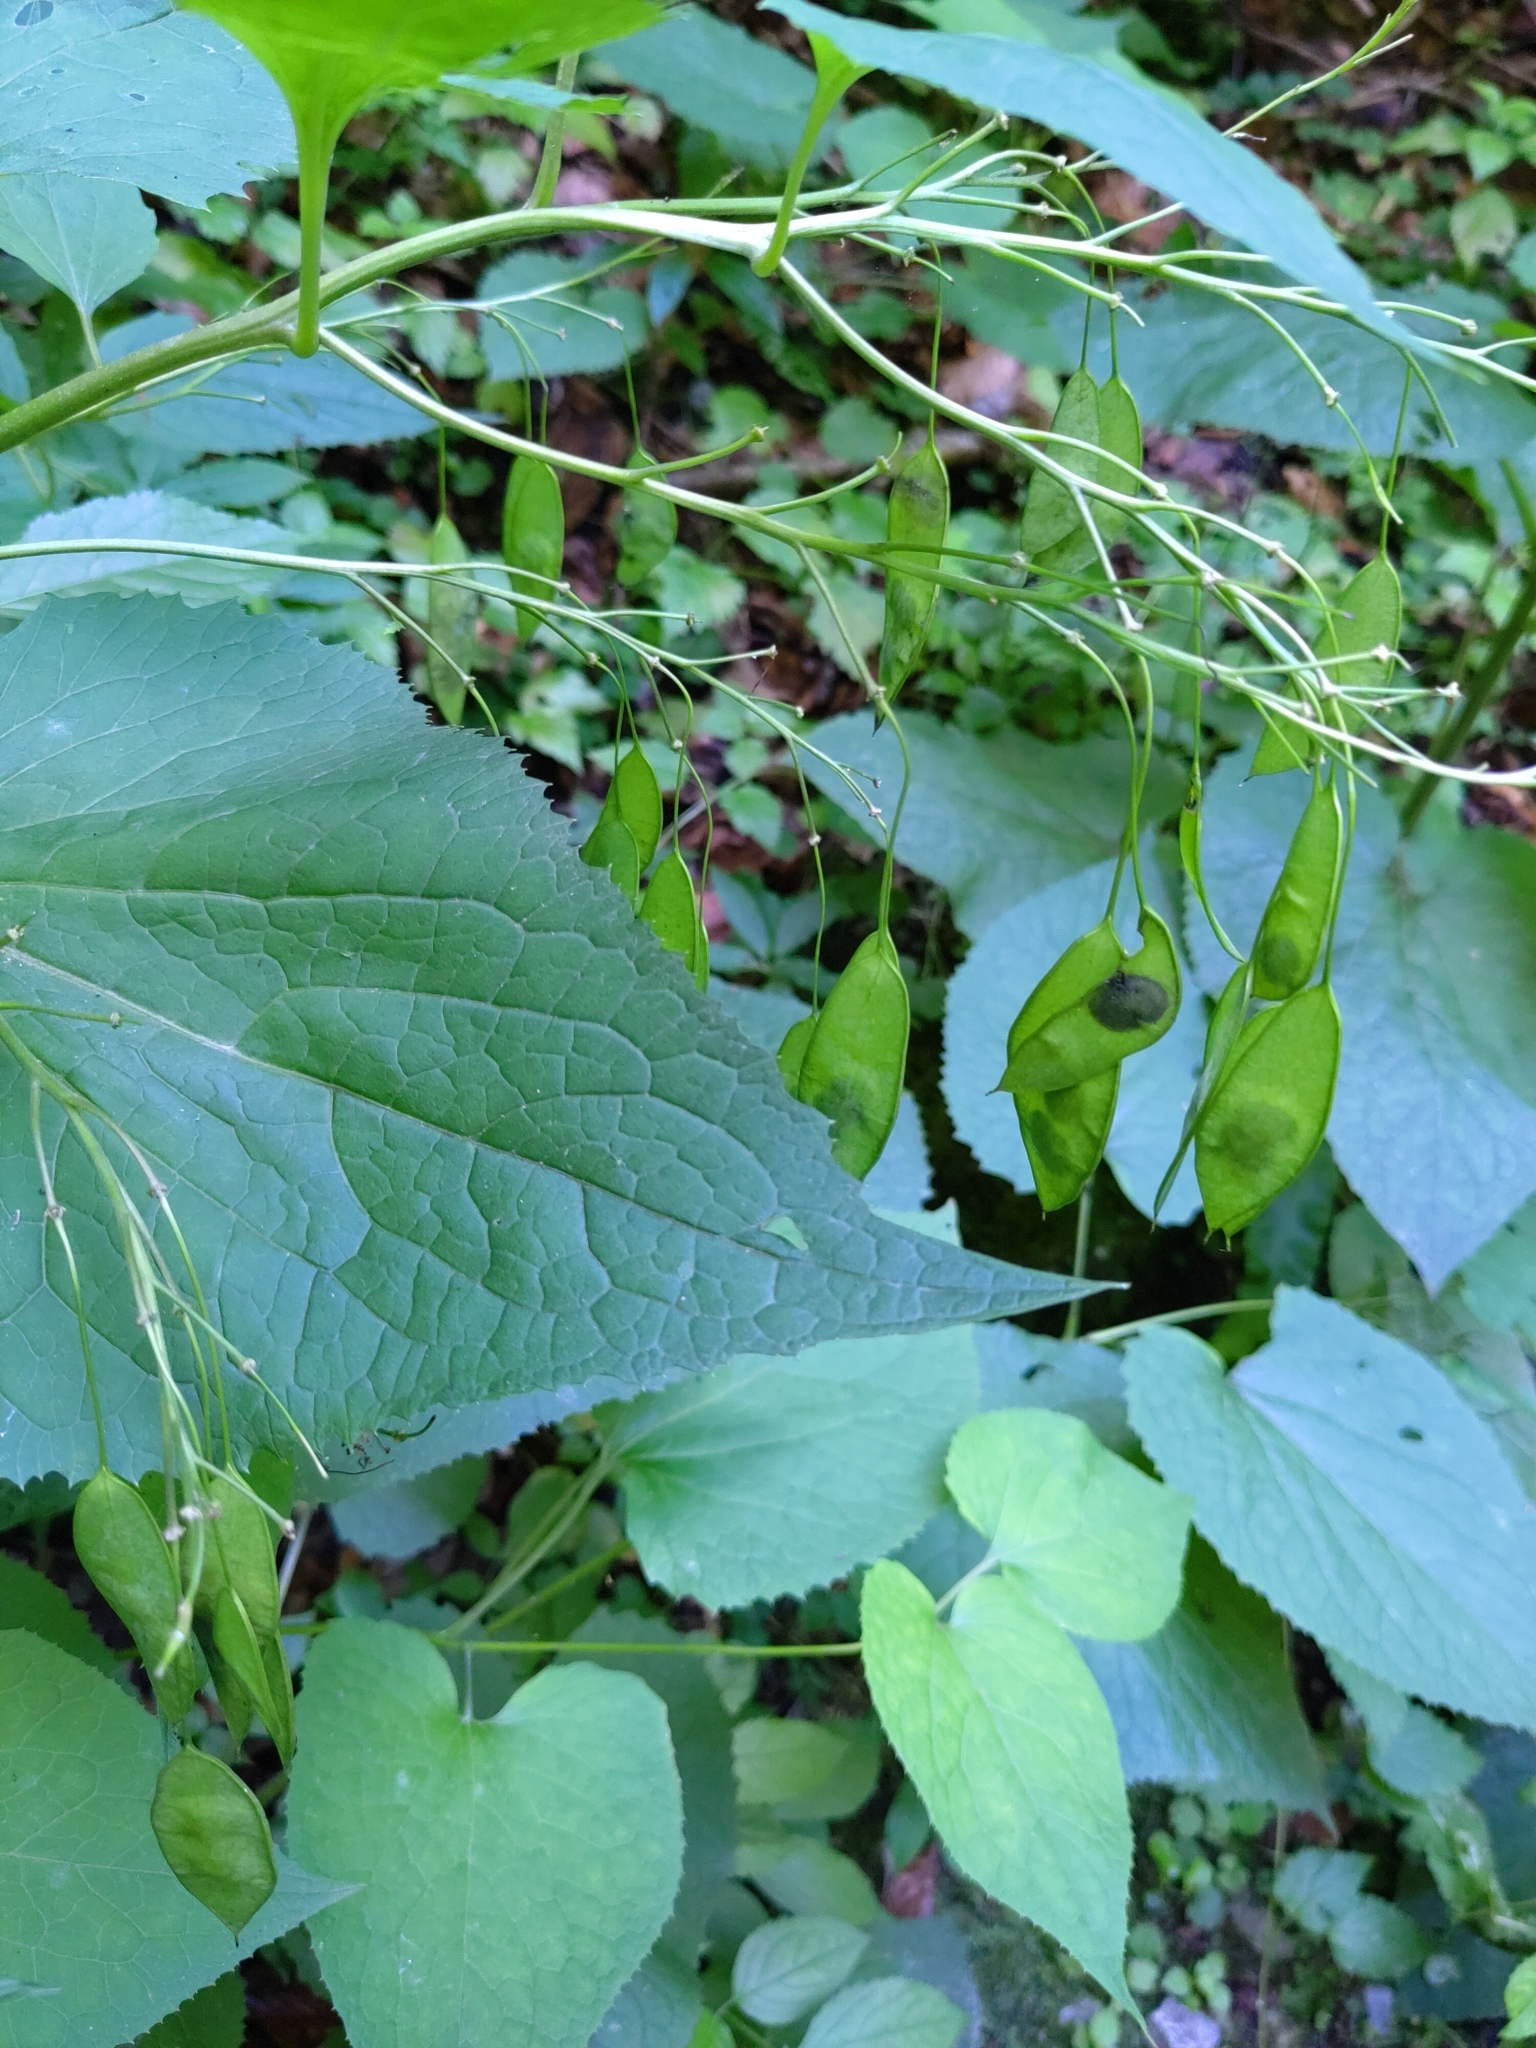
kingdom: Plantae
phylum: Tracheophyta
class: Magnoliopsida
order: Brassicales
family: Brassicaceae
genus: Lunaria
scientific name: Lunaria rediviva
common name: Perennial honesty
